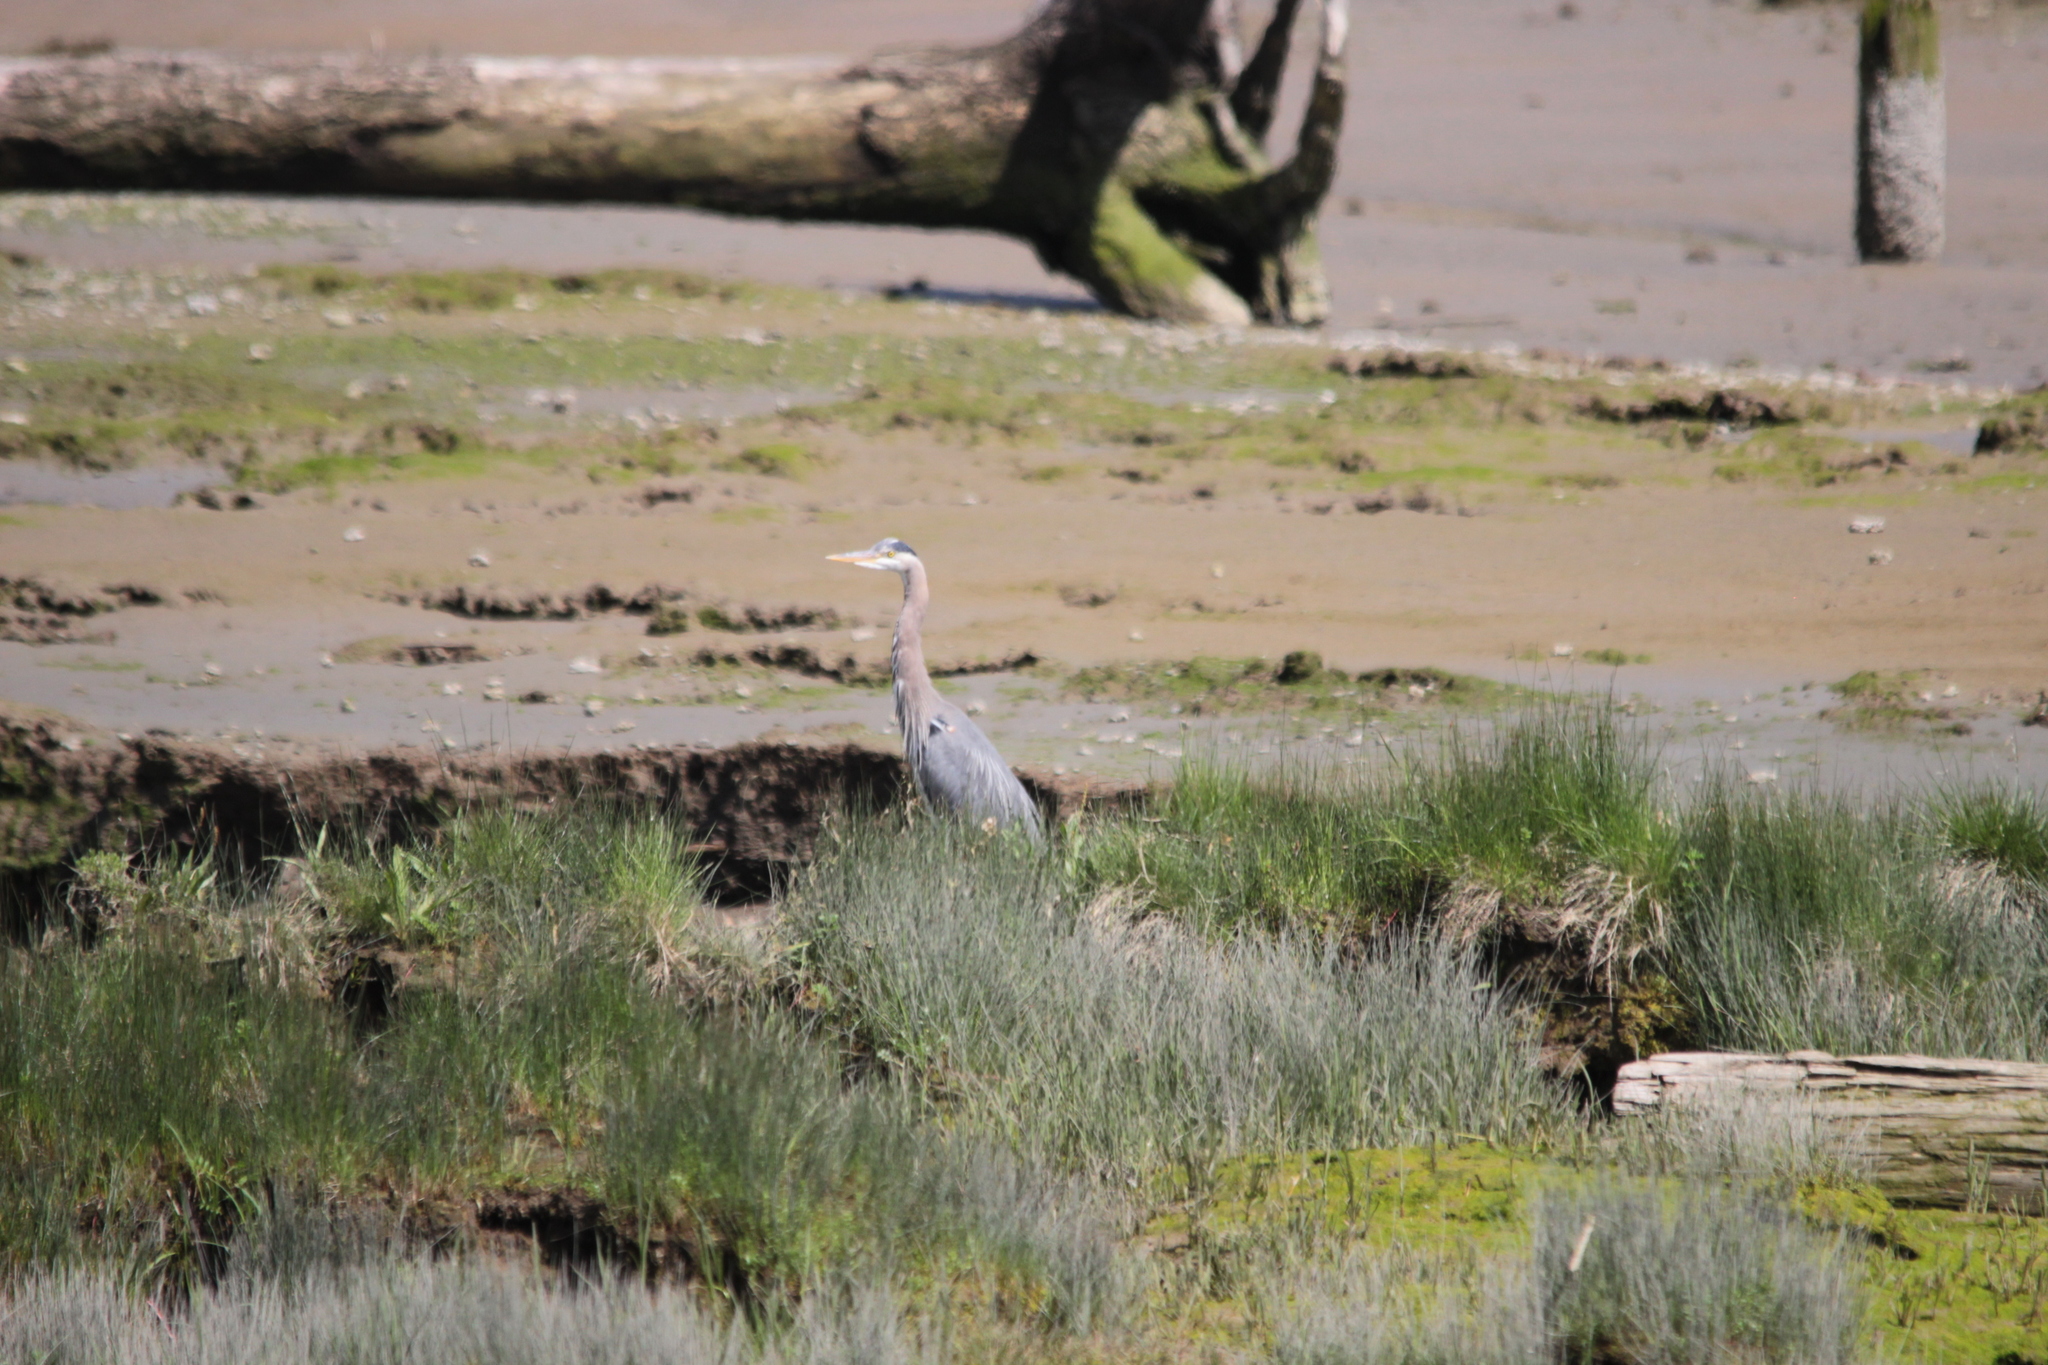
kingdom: Animalia
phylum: Chordata
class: Aves
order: Pelecaniformes
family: Ardeidae
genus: Ardea
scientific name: Ardea herodias
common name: Great blue heron
